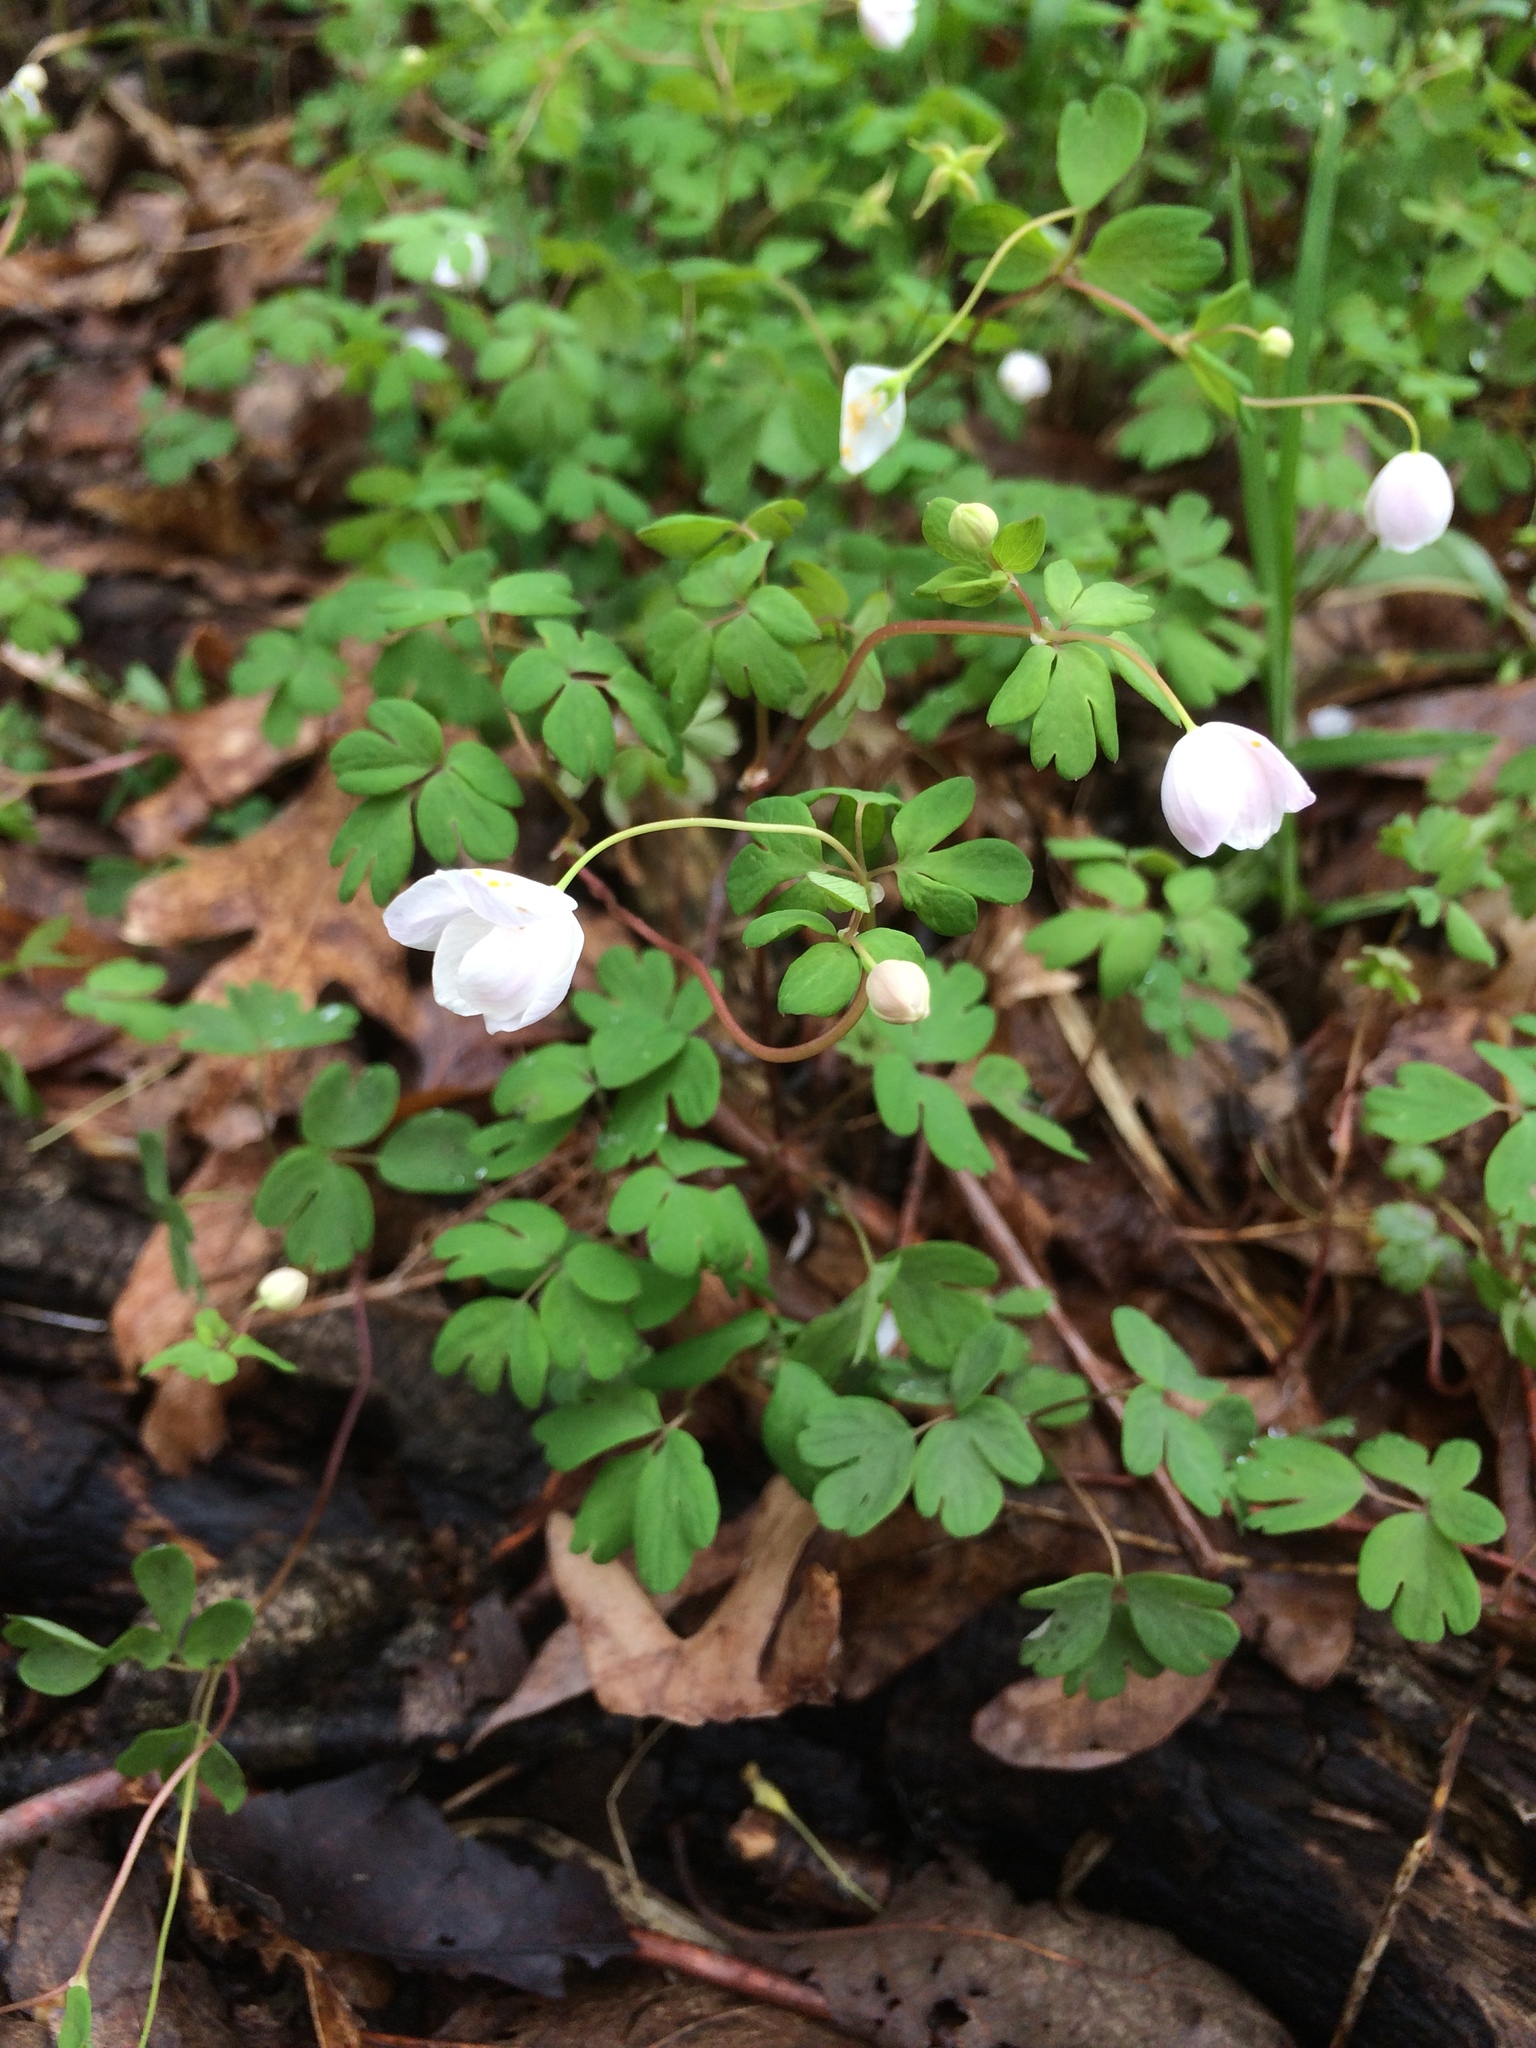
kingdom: Plantae
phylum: Tracheophyta
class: Magnoliopsida
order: Ranunculales
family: Ranunculaceae
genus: Enemion
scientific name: Enemion biternatum
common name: Eastern false rue-anemone
